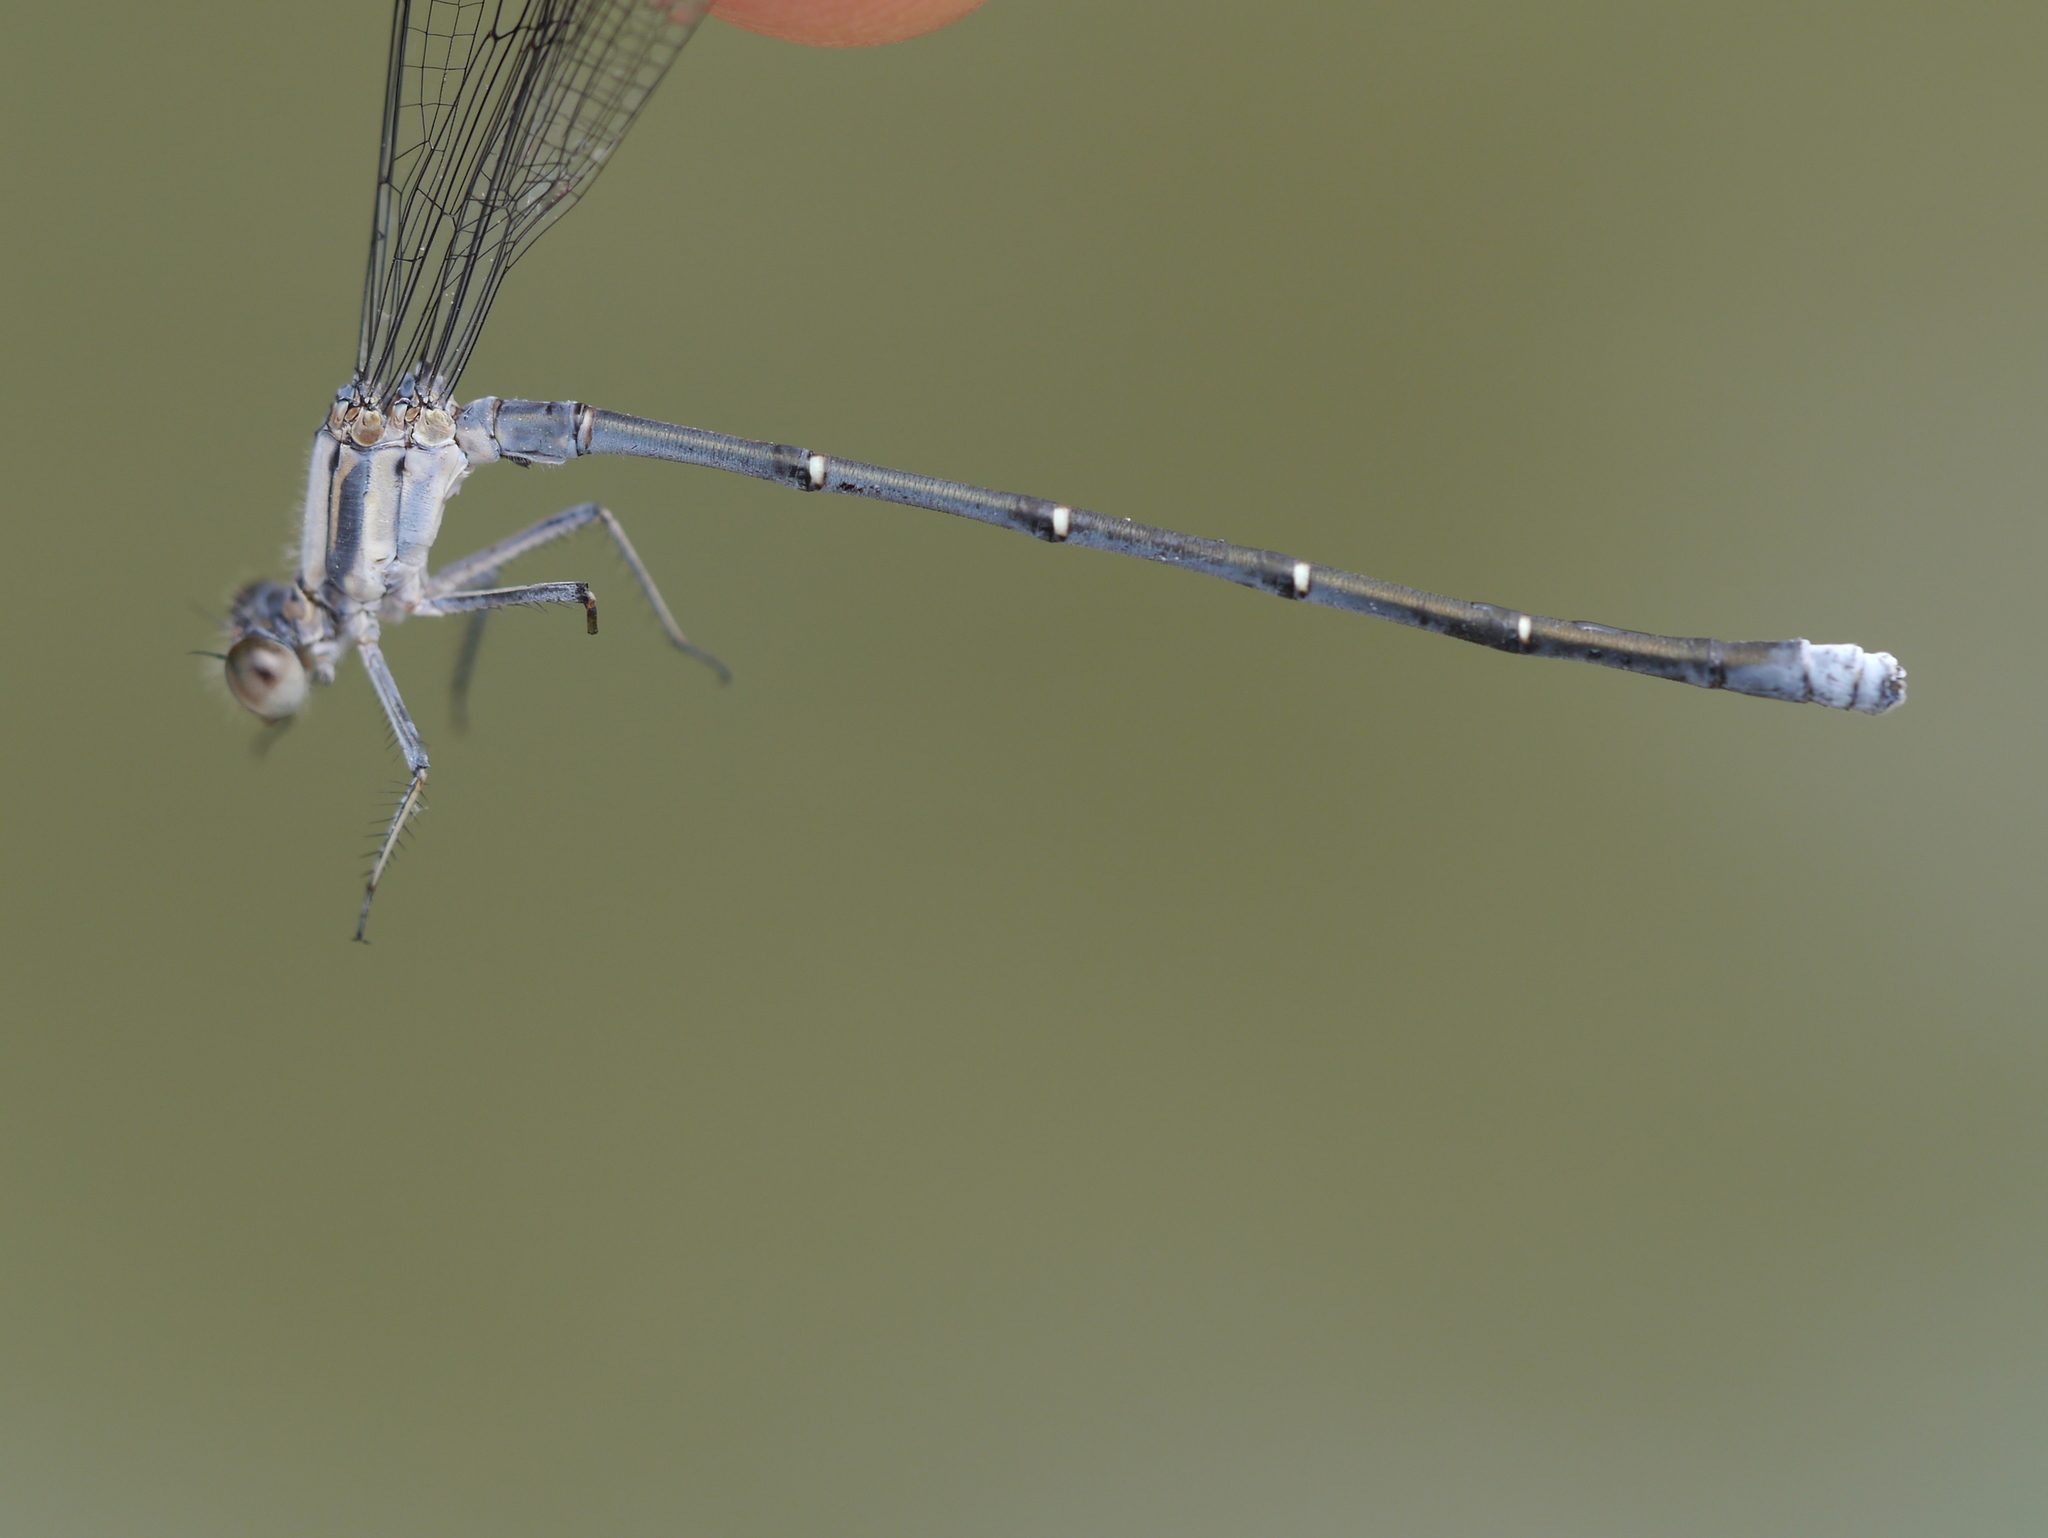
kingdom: Animalia
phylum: Arthropoda
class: Insecta
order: Odonata
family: Coenagrionidae
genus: Argia
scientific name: Argia moesta
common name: Powdered dancer
